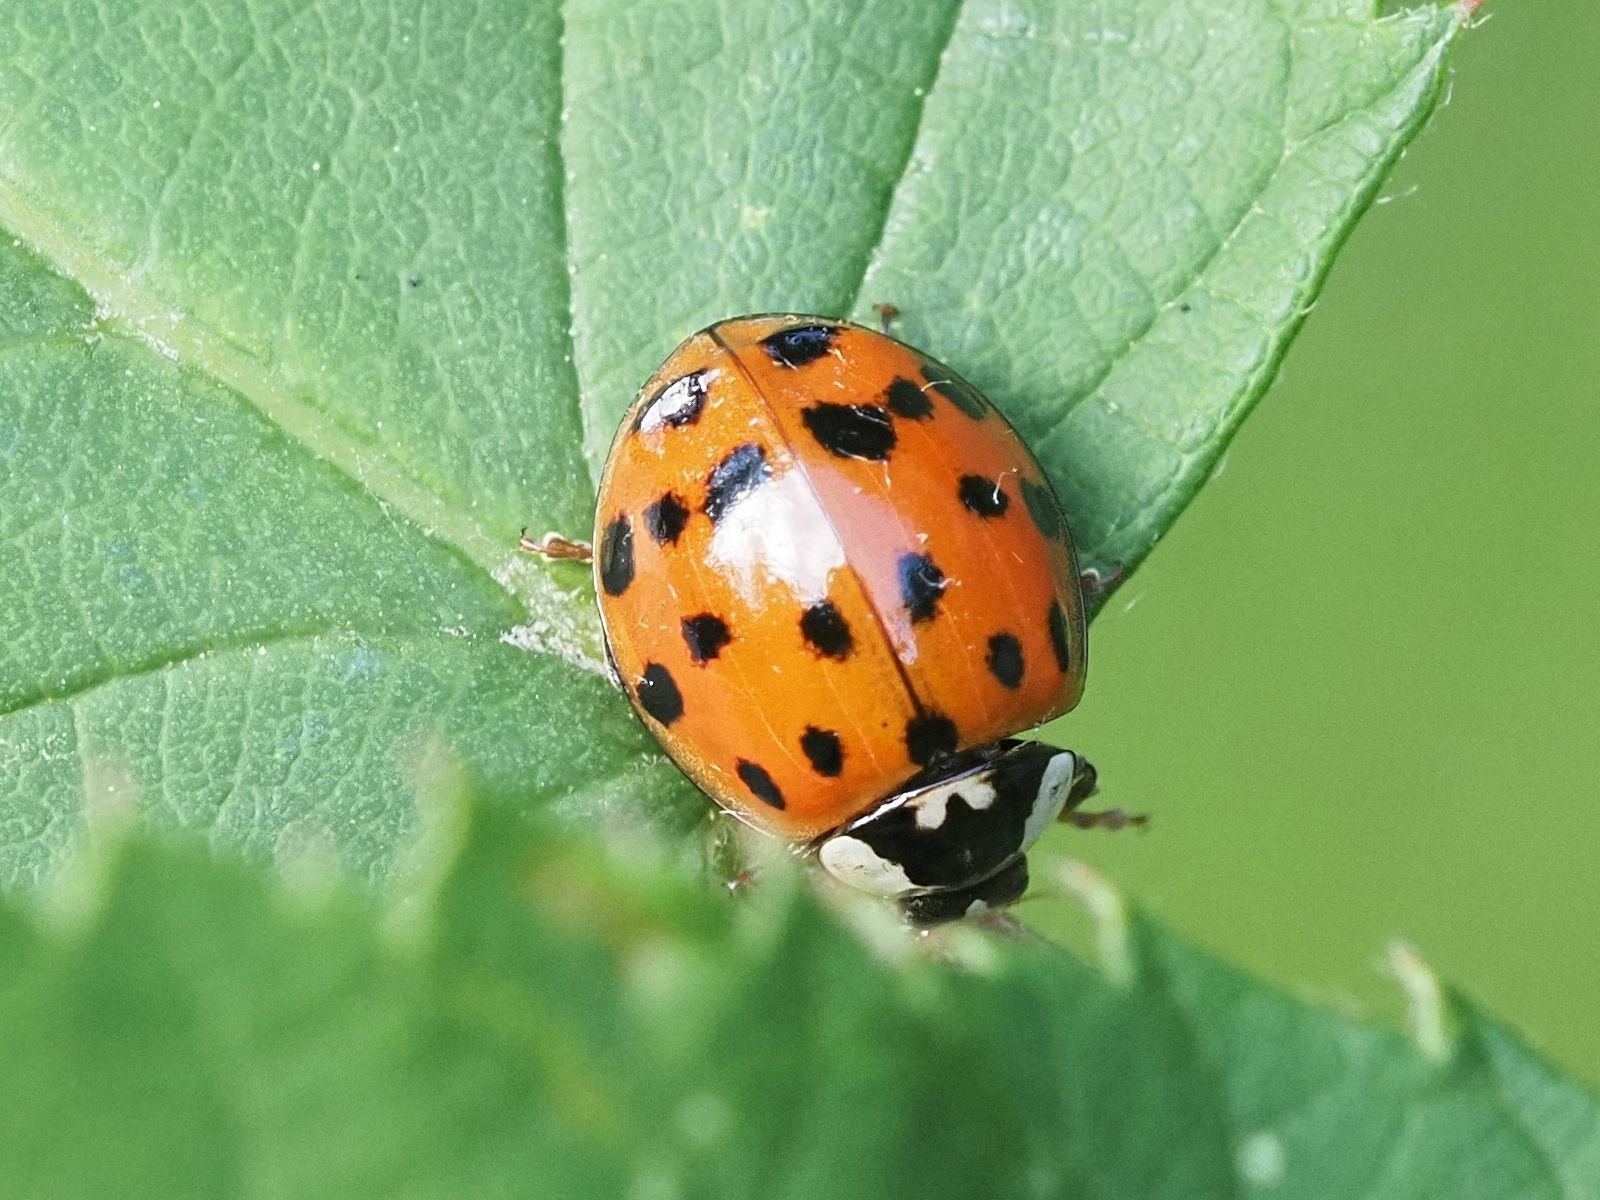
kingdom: Animalia
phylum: Arthropoda
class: Insecta
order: Coleoptera
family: Coccinellidae
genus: Harmonia
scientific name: Harmonia axyridis
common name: Harlequin ladybird
